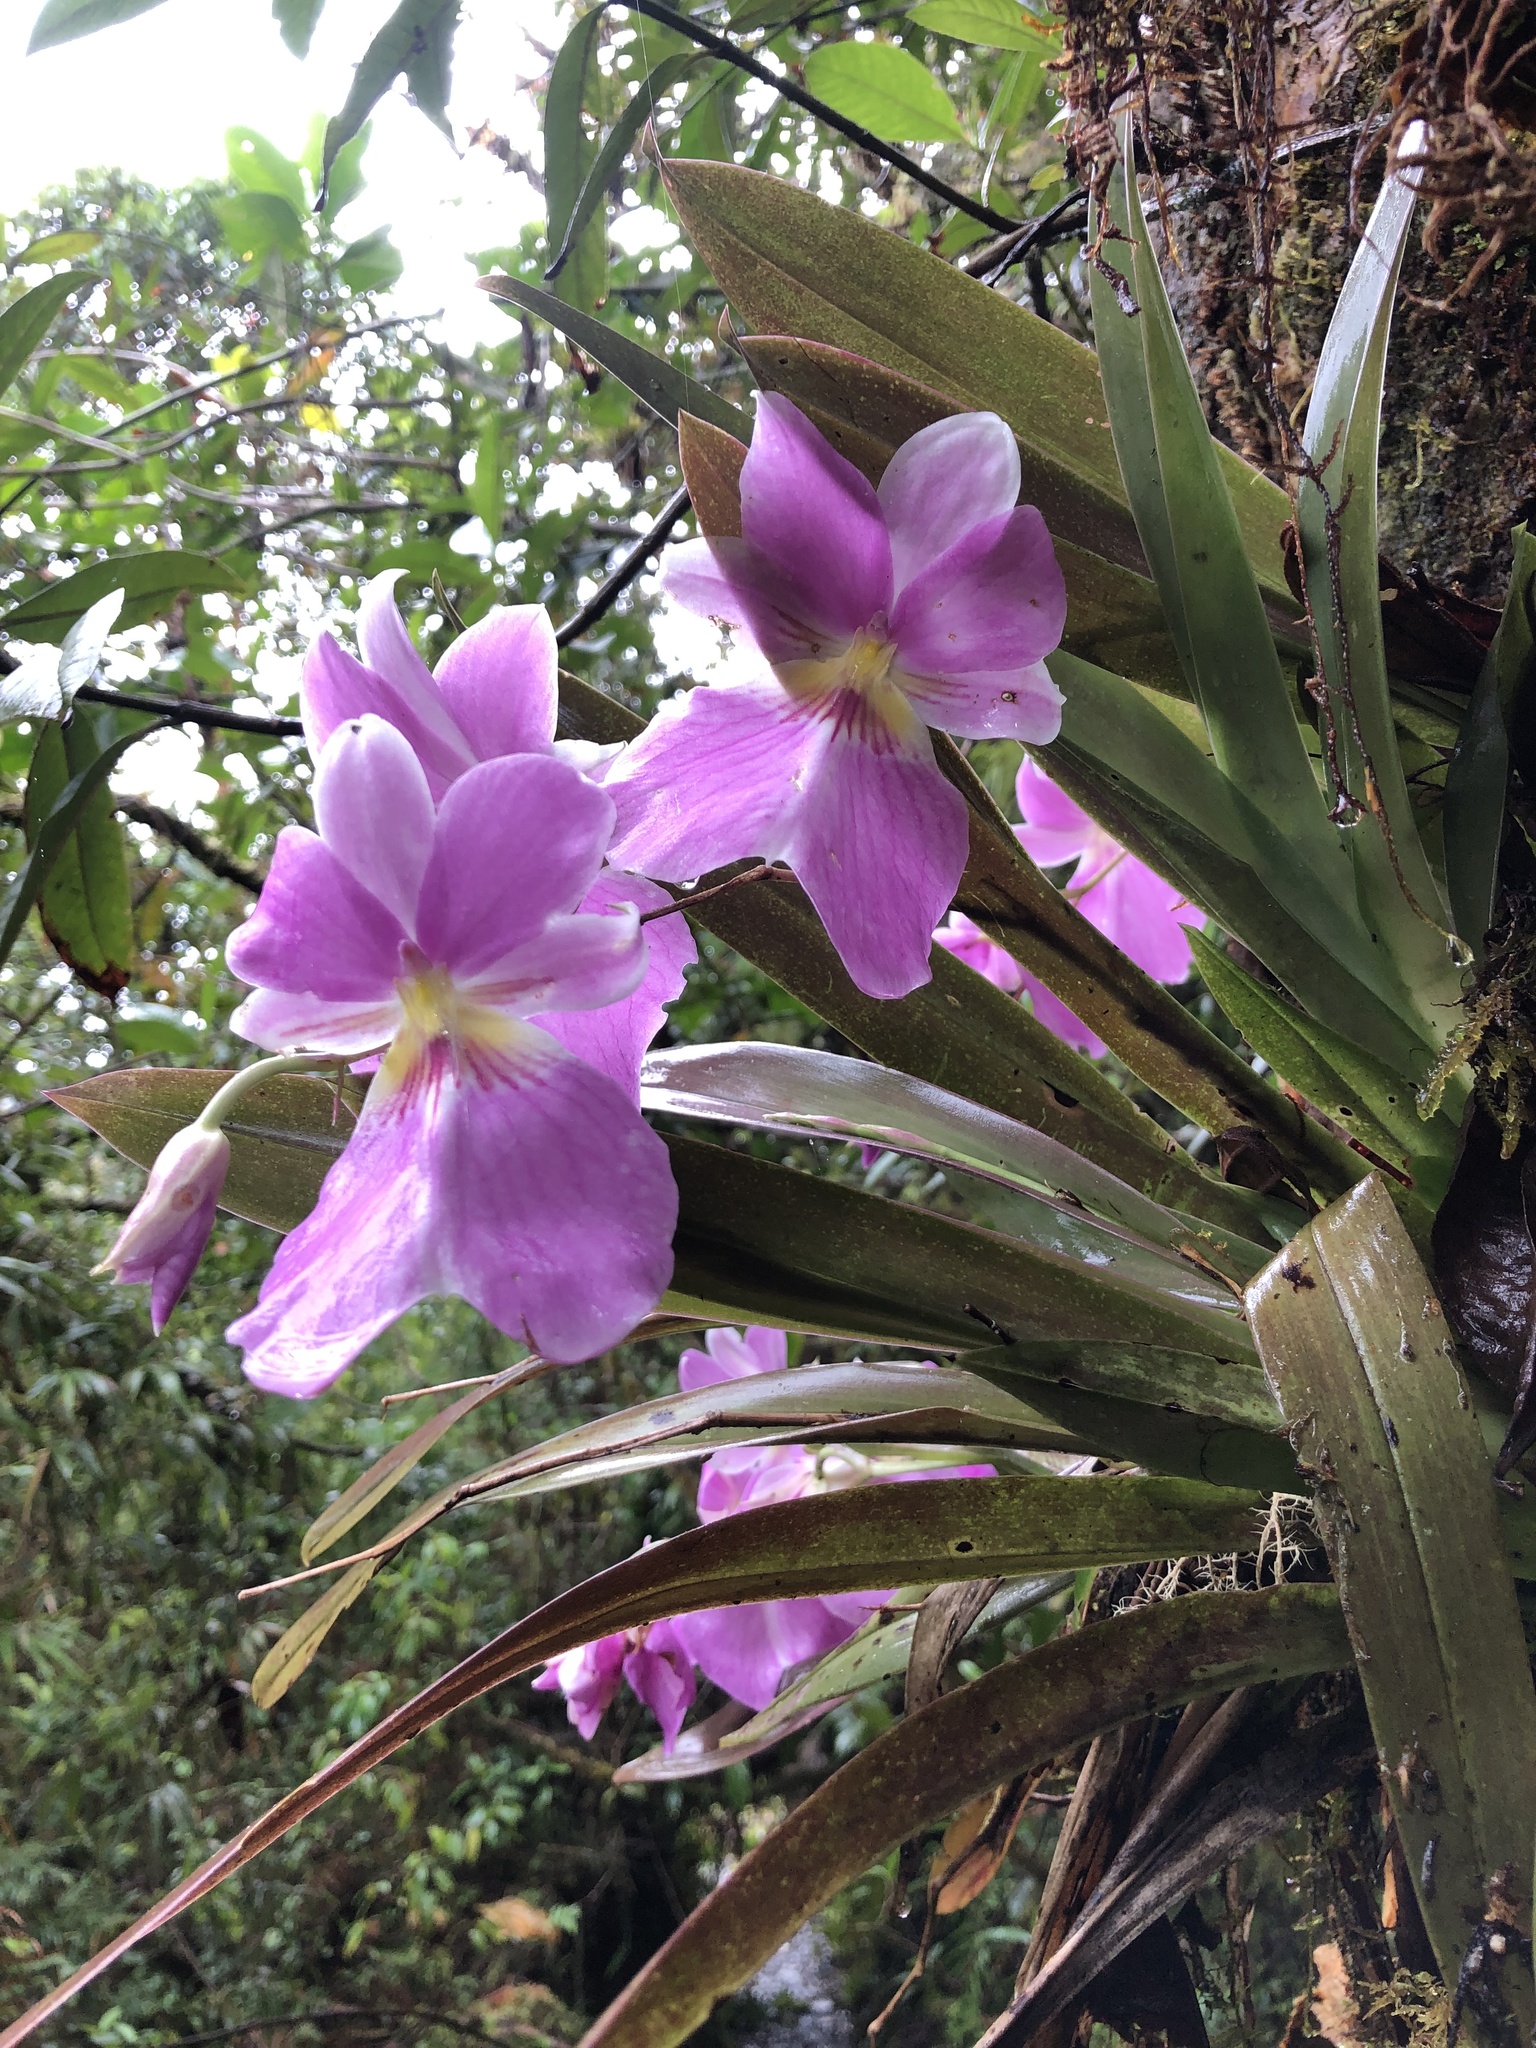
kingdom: Plantae
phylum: Tracheophyta
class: Liliopsida
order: Asparagales
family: Orchidaceae
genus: Miltoniopsis
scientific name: Miltoniopsis vexillaria
